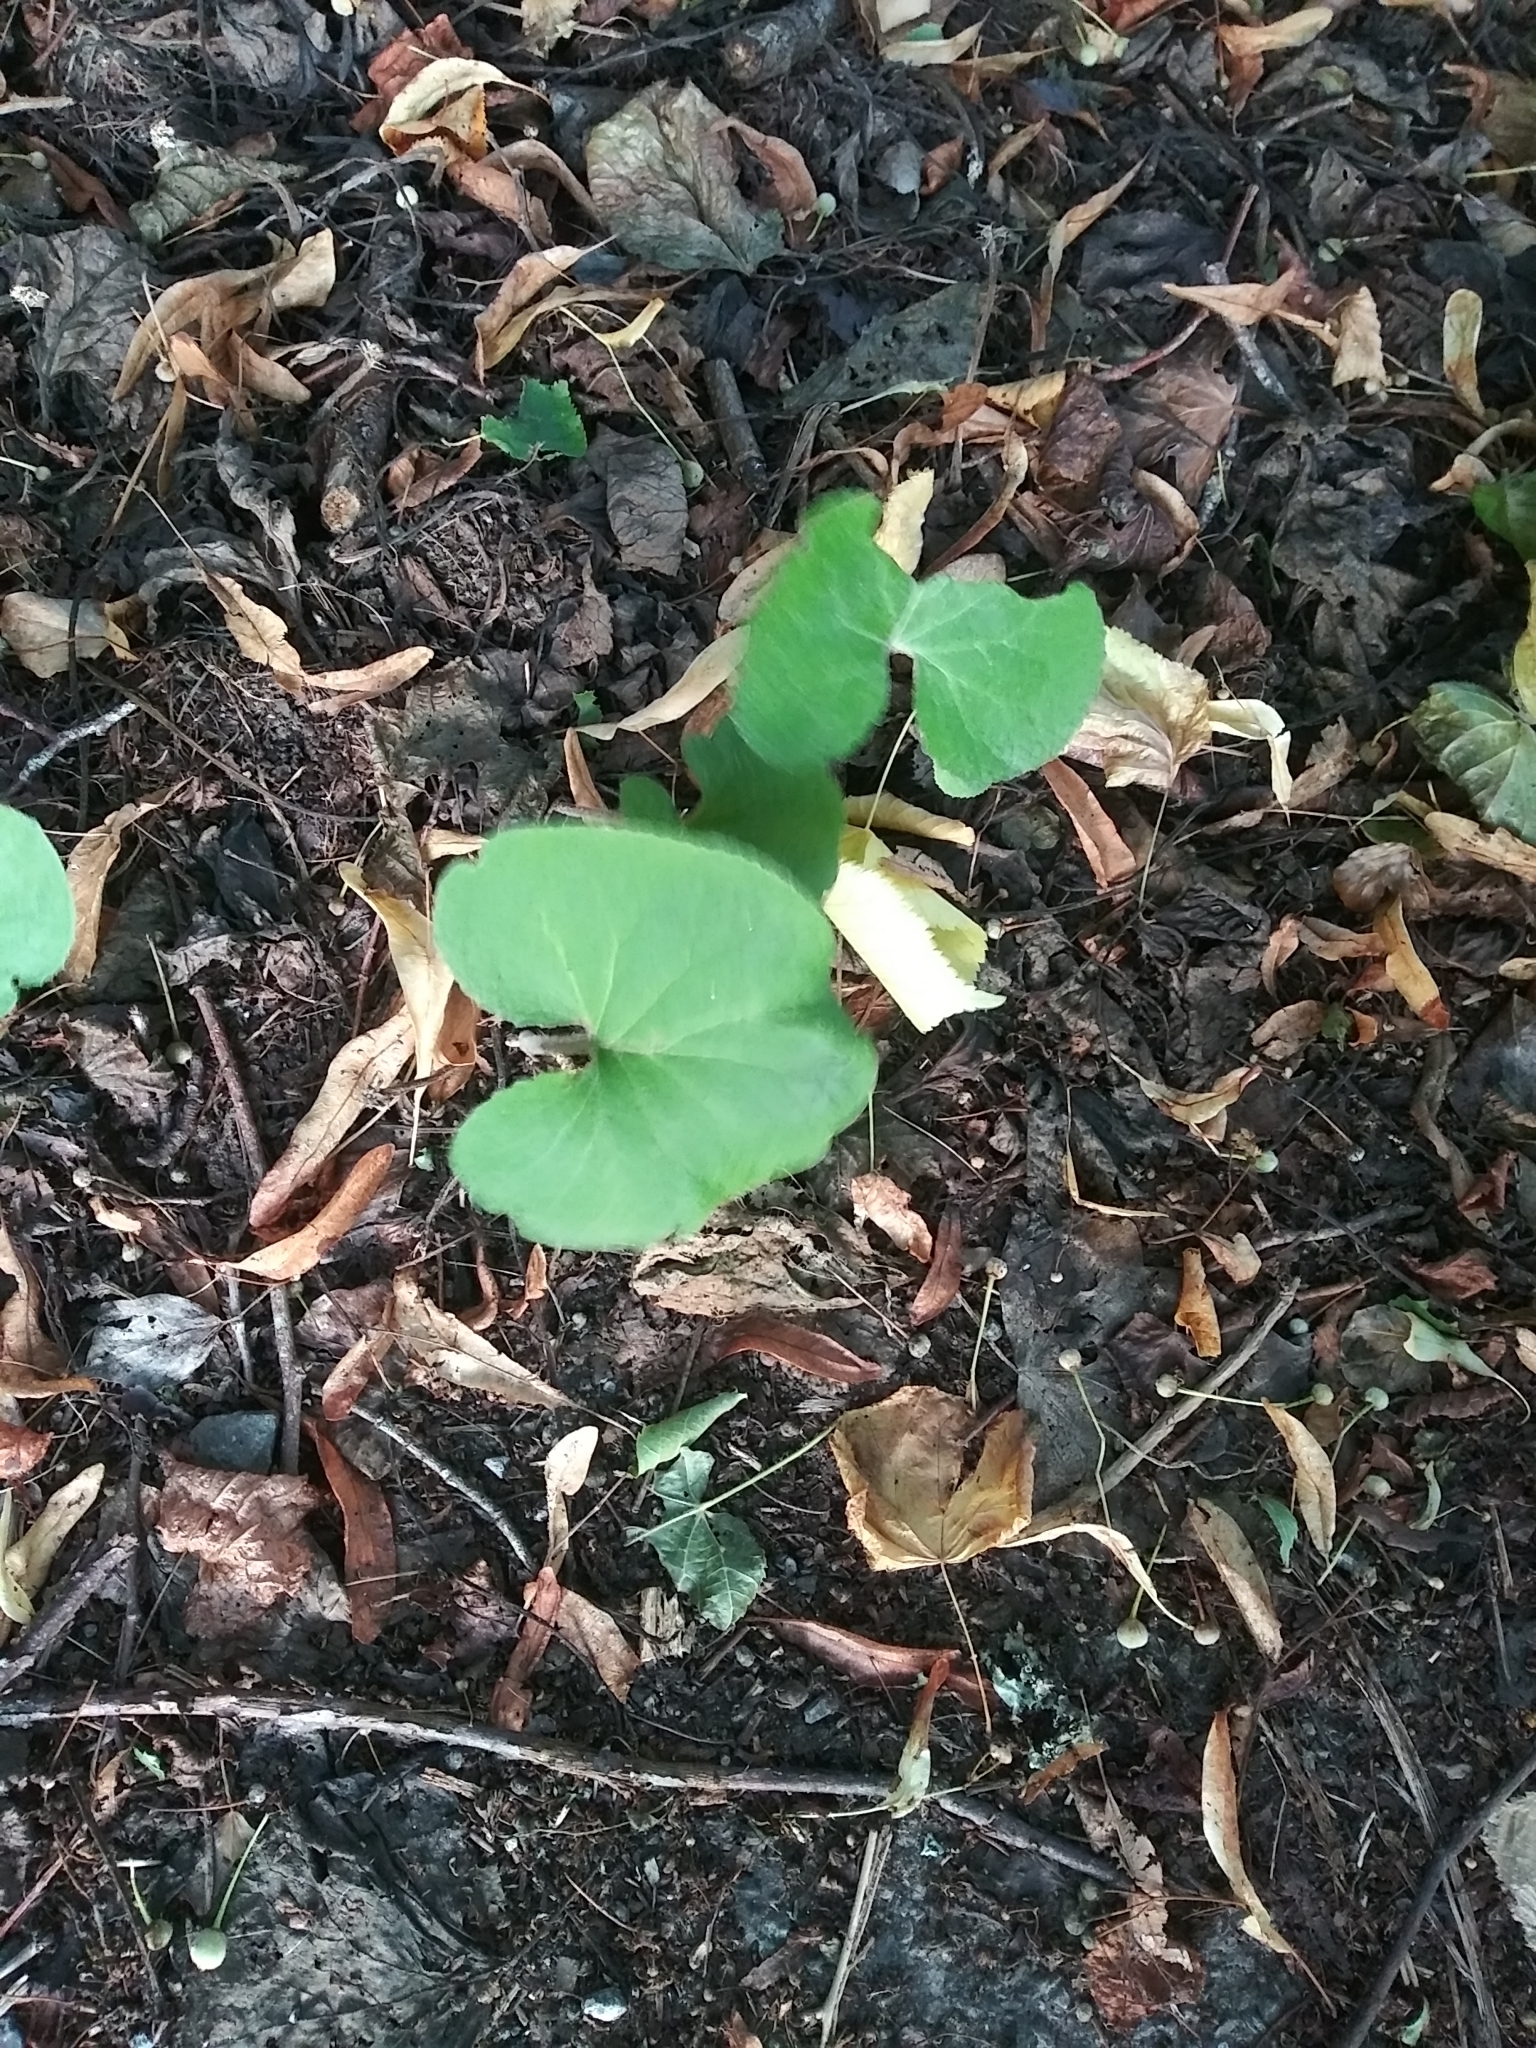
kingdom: Plantae
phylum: Tracheophyta
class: Magnoliopsida
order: Asterales
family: Asteraceae
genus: Petasites
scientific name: Petasites pyrenaicus
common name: Winter heliotrope
